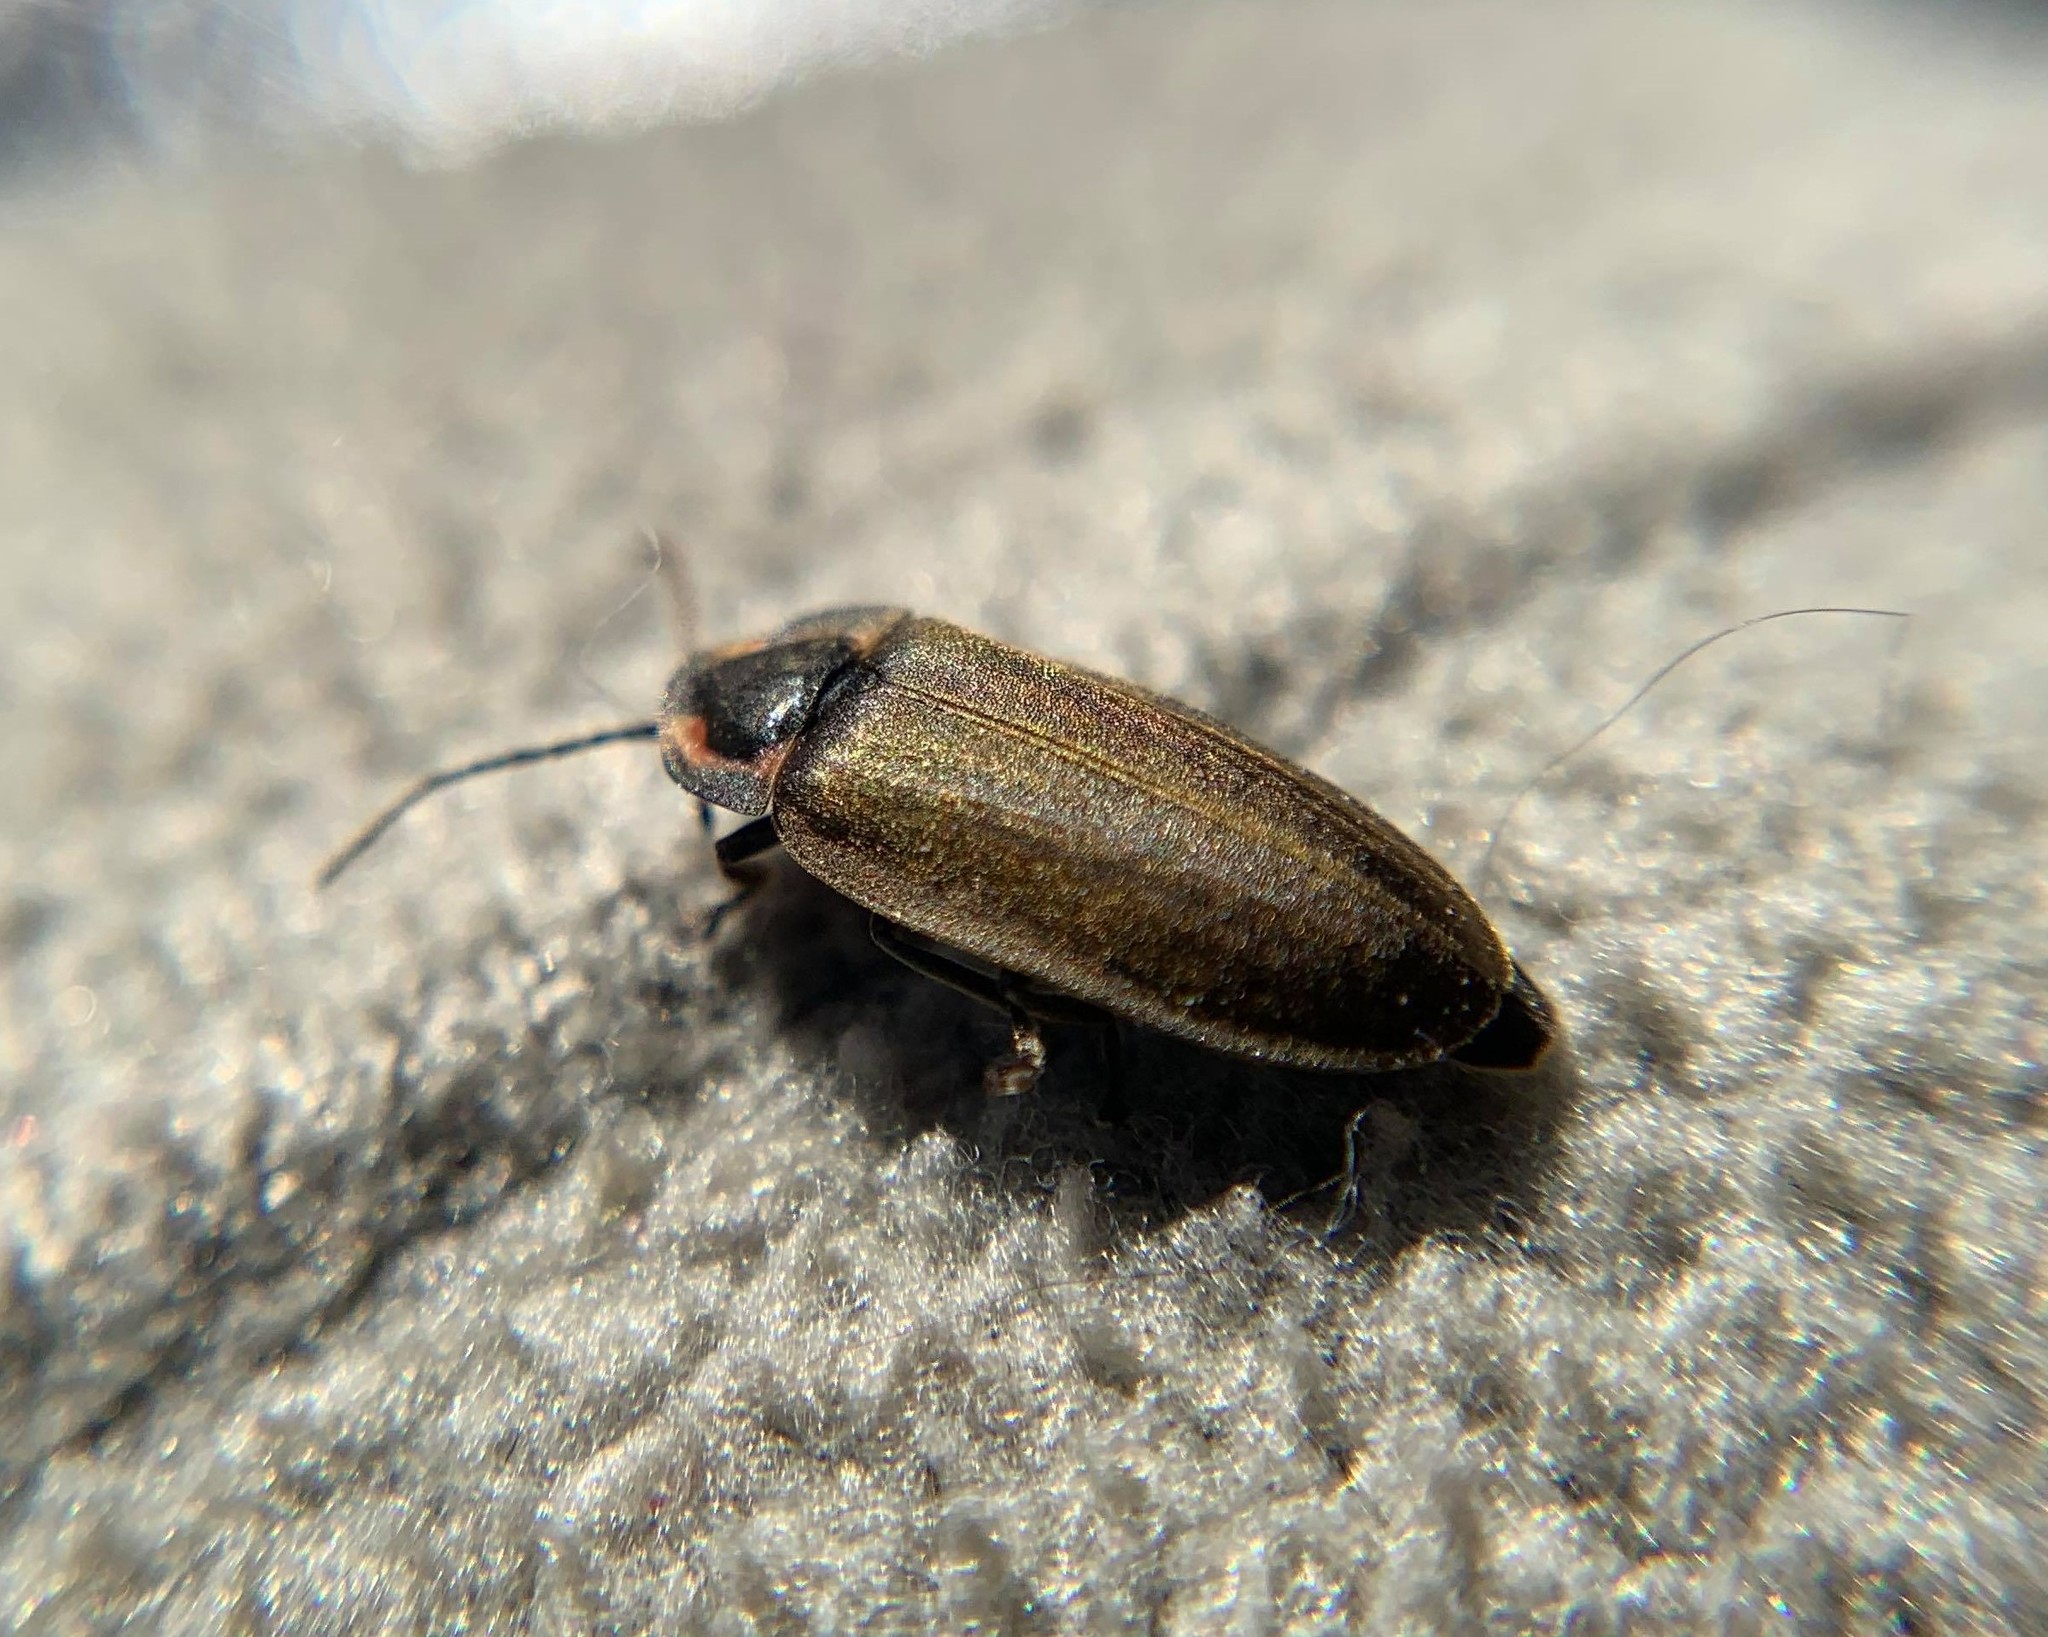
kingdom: Animalia
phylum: Arthropoda
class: Insecta
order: Coleoptera
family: Lampyridae
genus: Photinus
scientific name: Photinus corrusca
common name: Winter firefly
